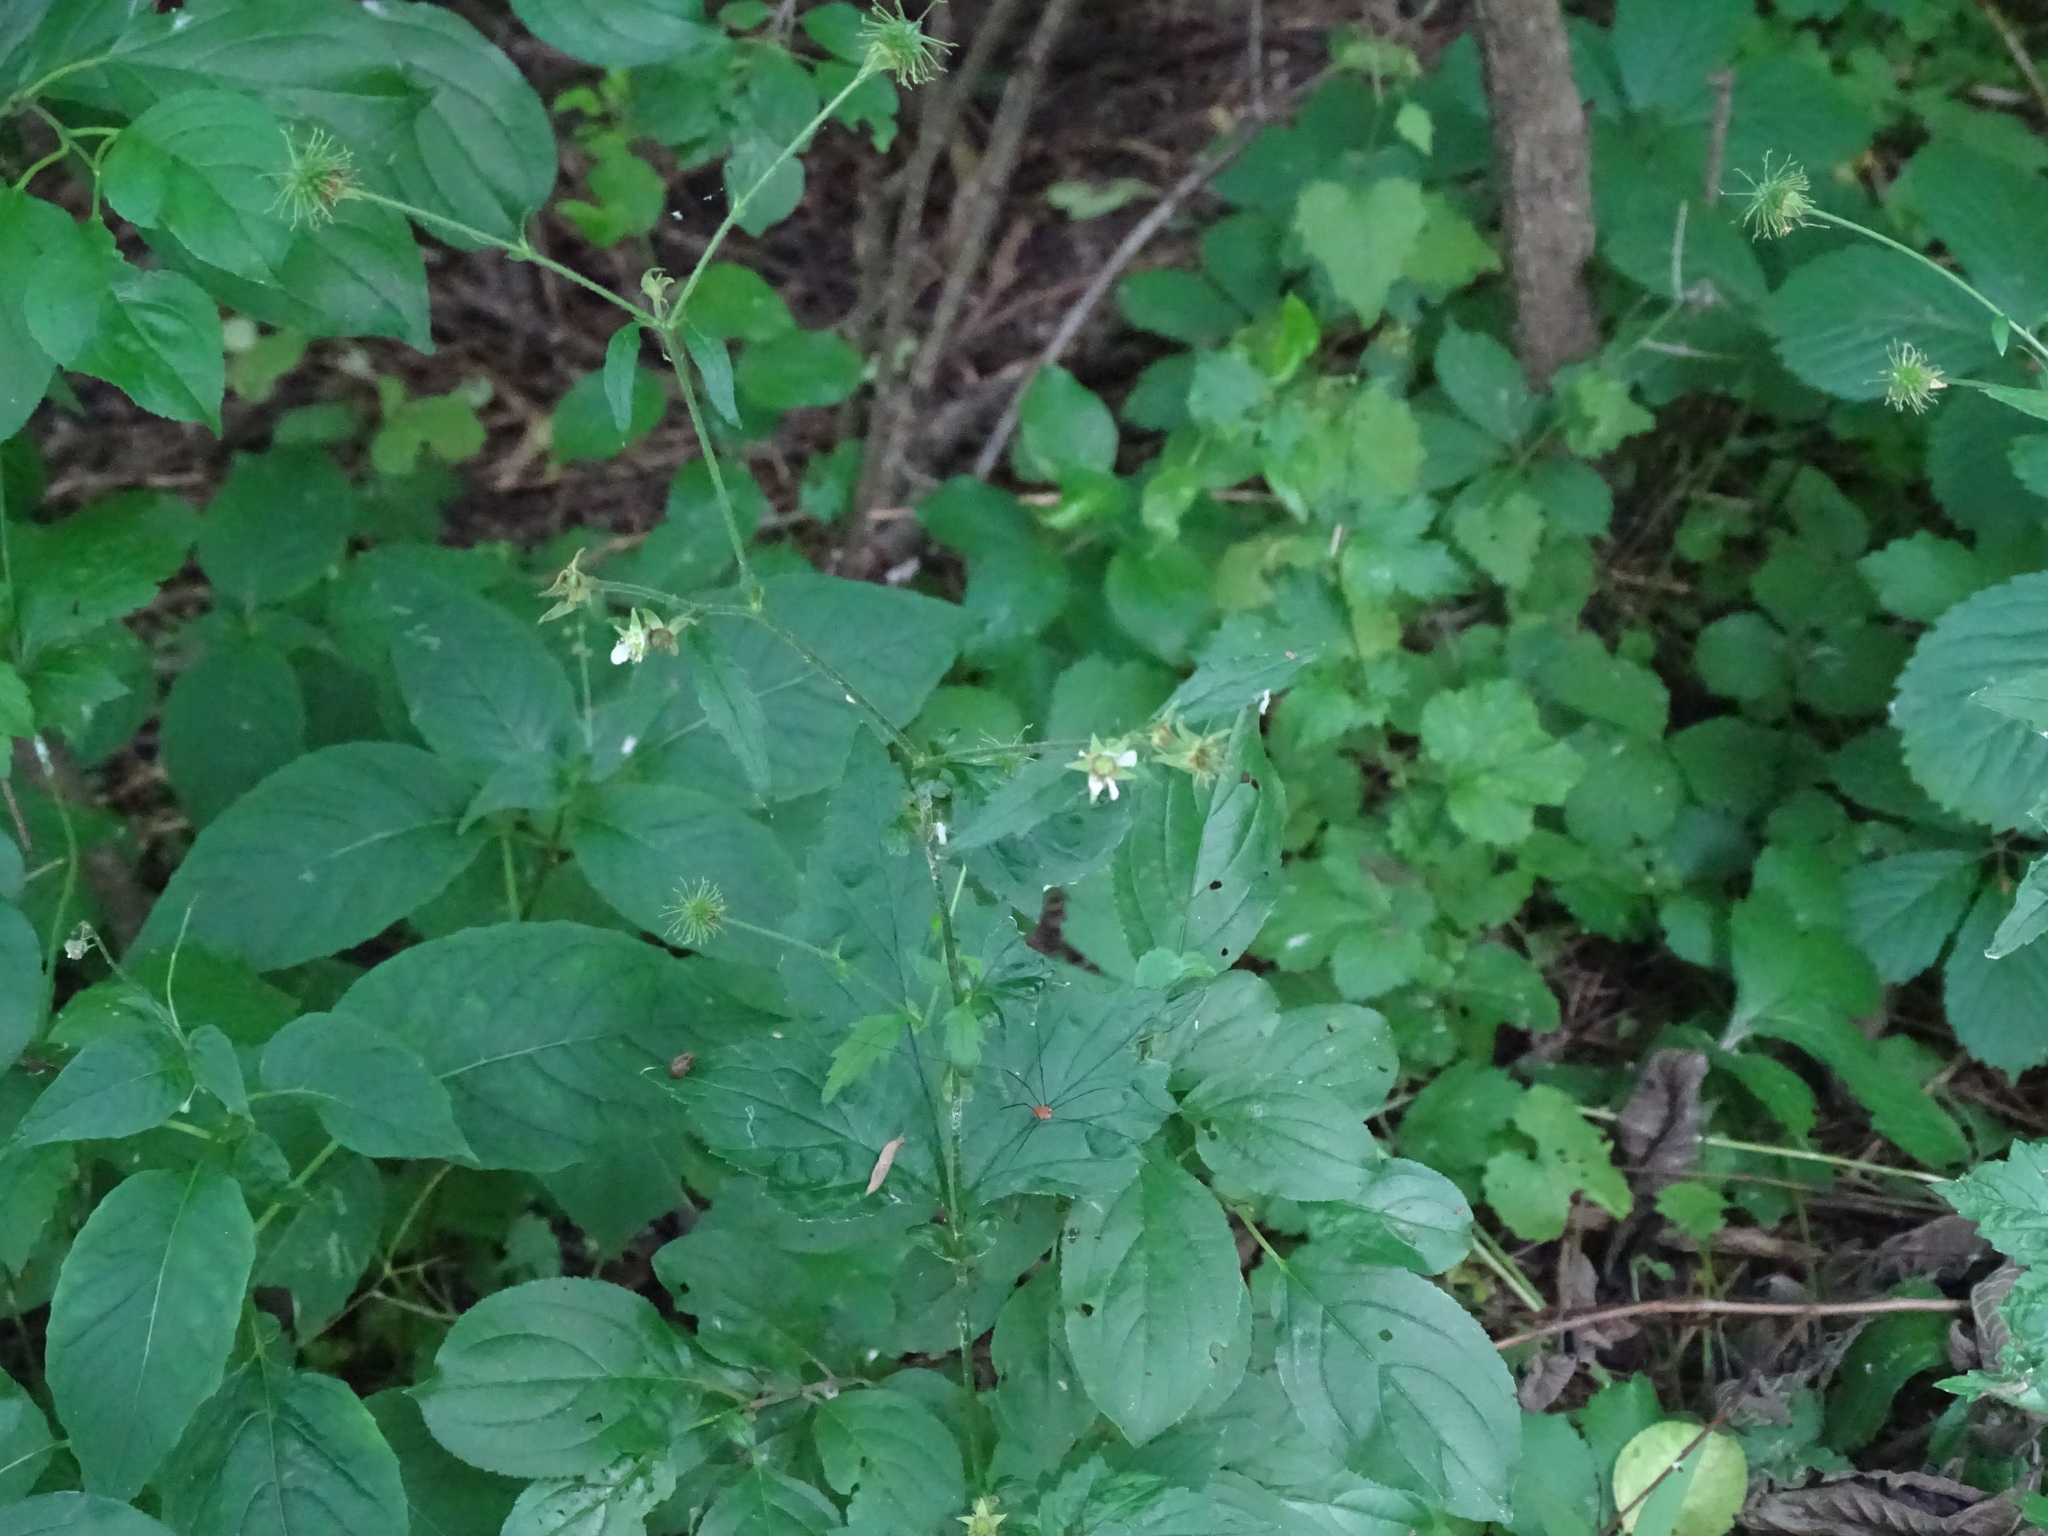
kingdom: Plantae
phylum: Tracheophyta
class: Magnoliopsida
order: Rosales
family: Rosaceae
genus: Geum
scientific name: Geum canadense
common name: White avens
